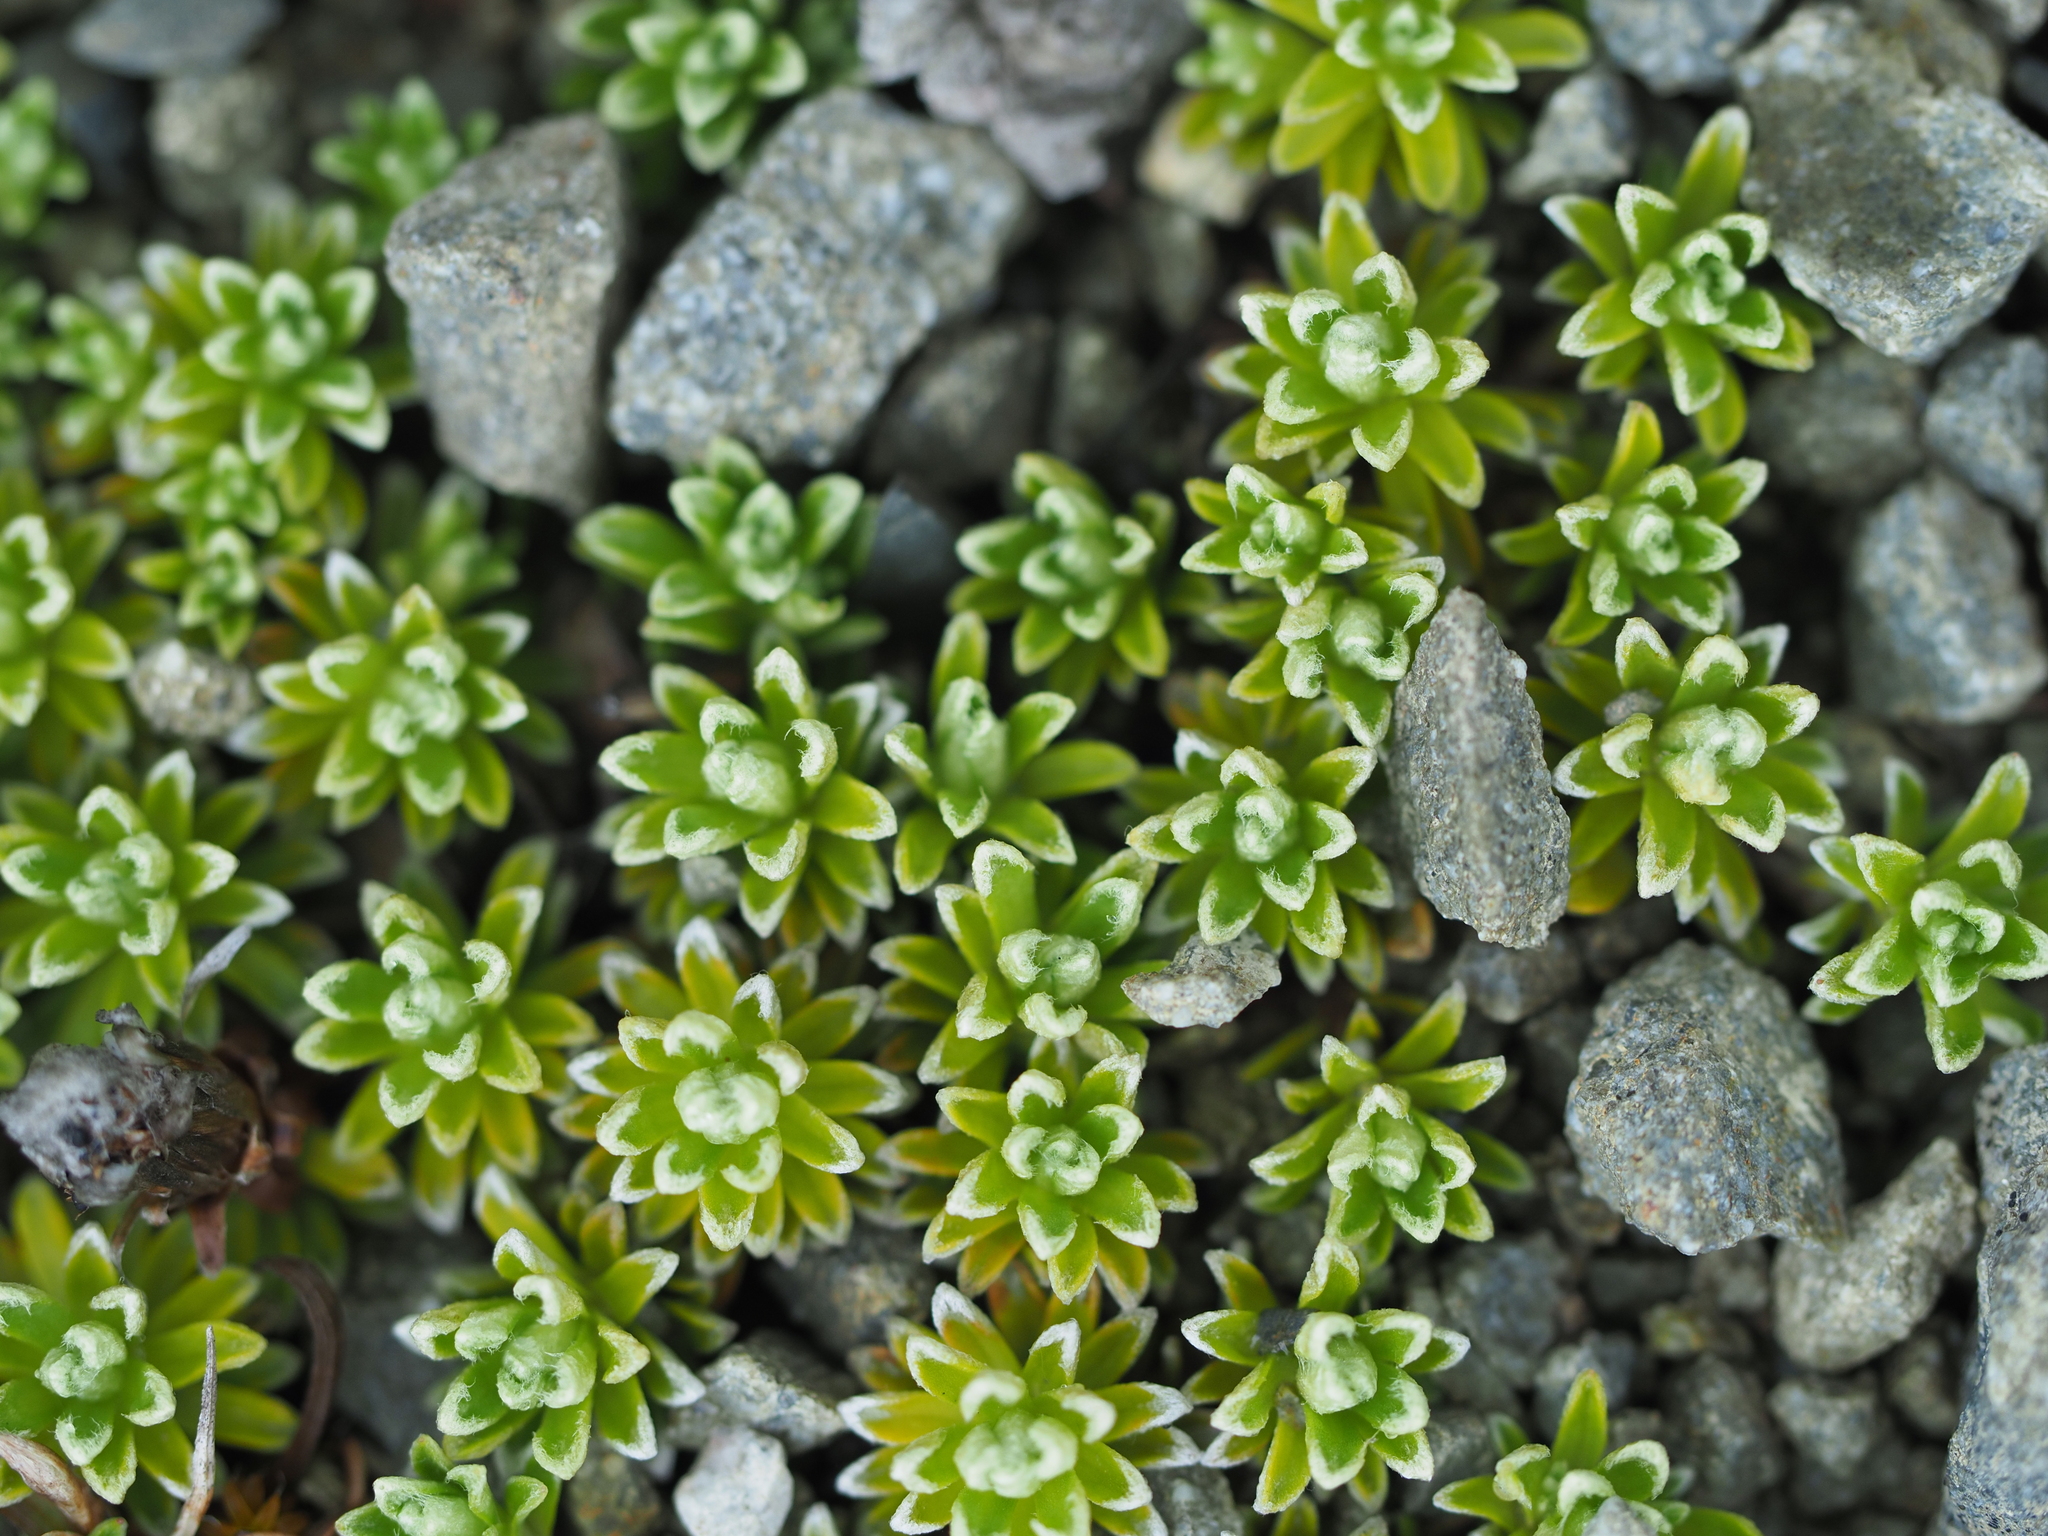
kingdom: Plantae
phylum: Tracheophyta
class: Magnoliopsida
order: Asterales
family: Asteraceae
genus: Raoulia
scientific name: Raoulia subsericea
